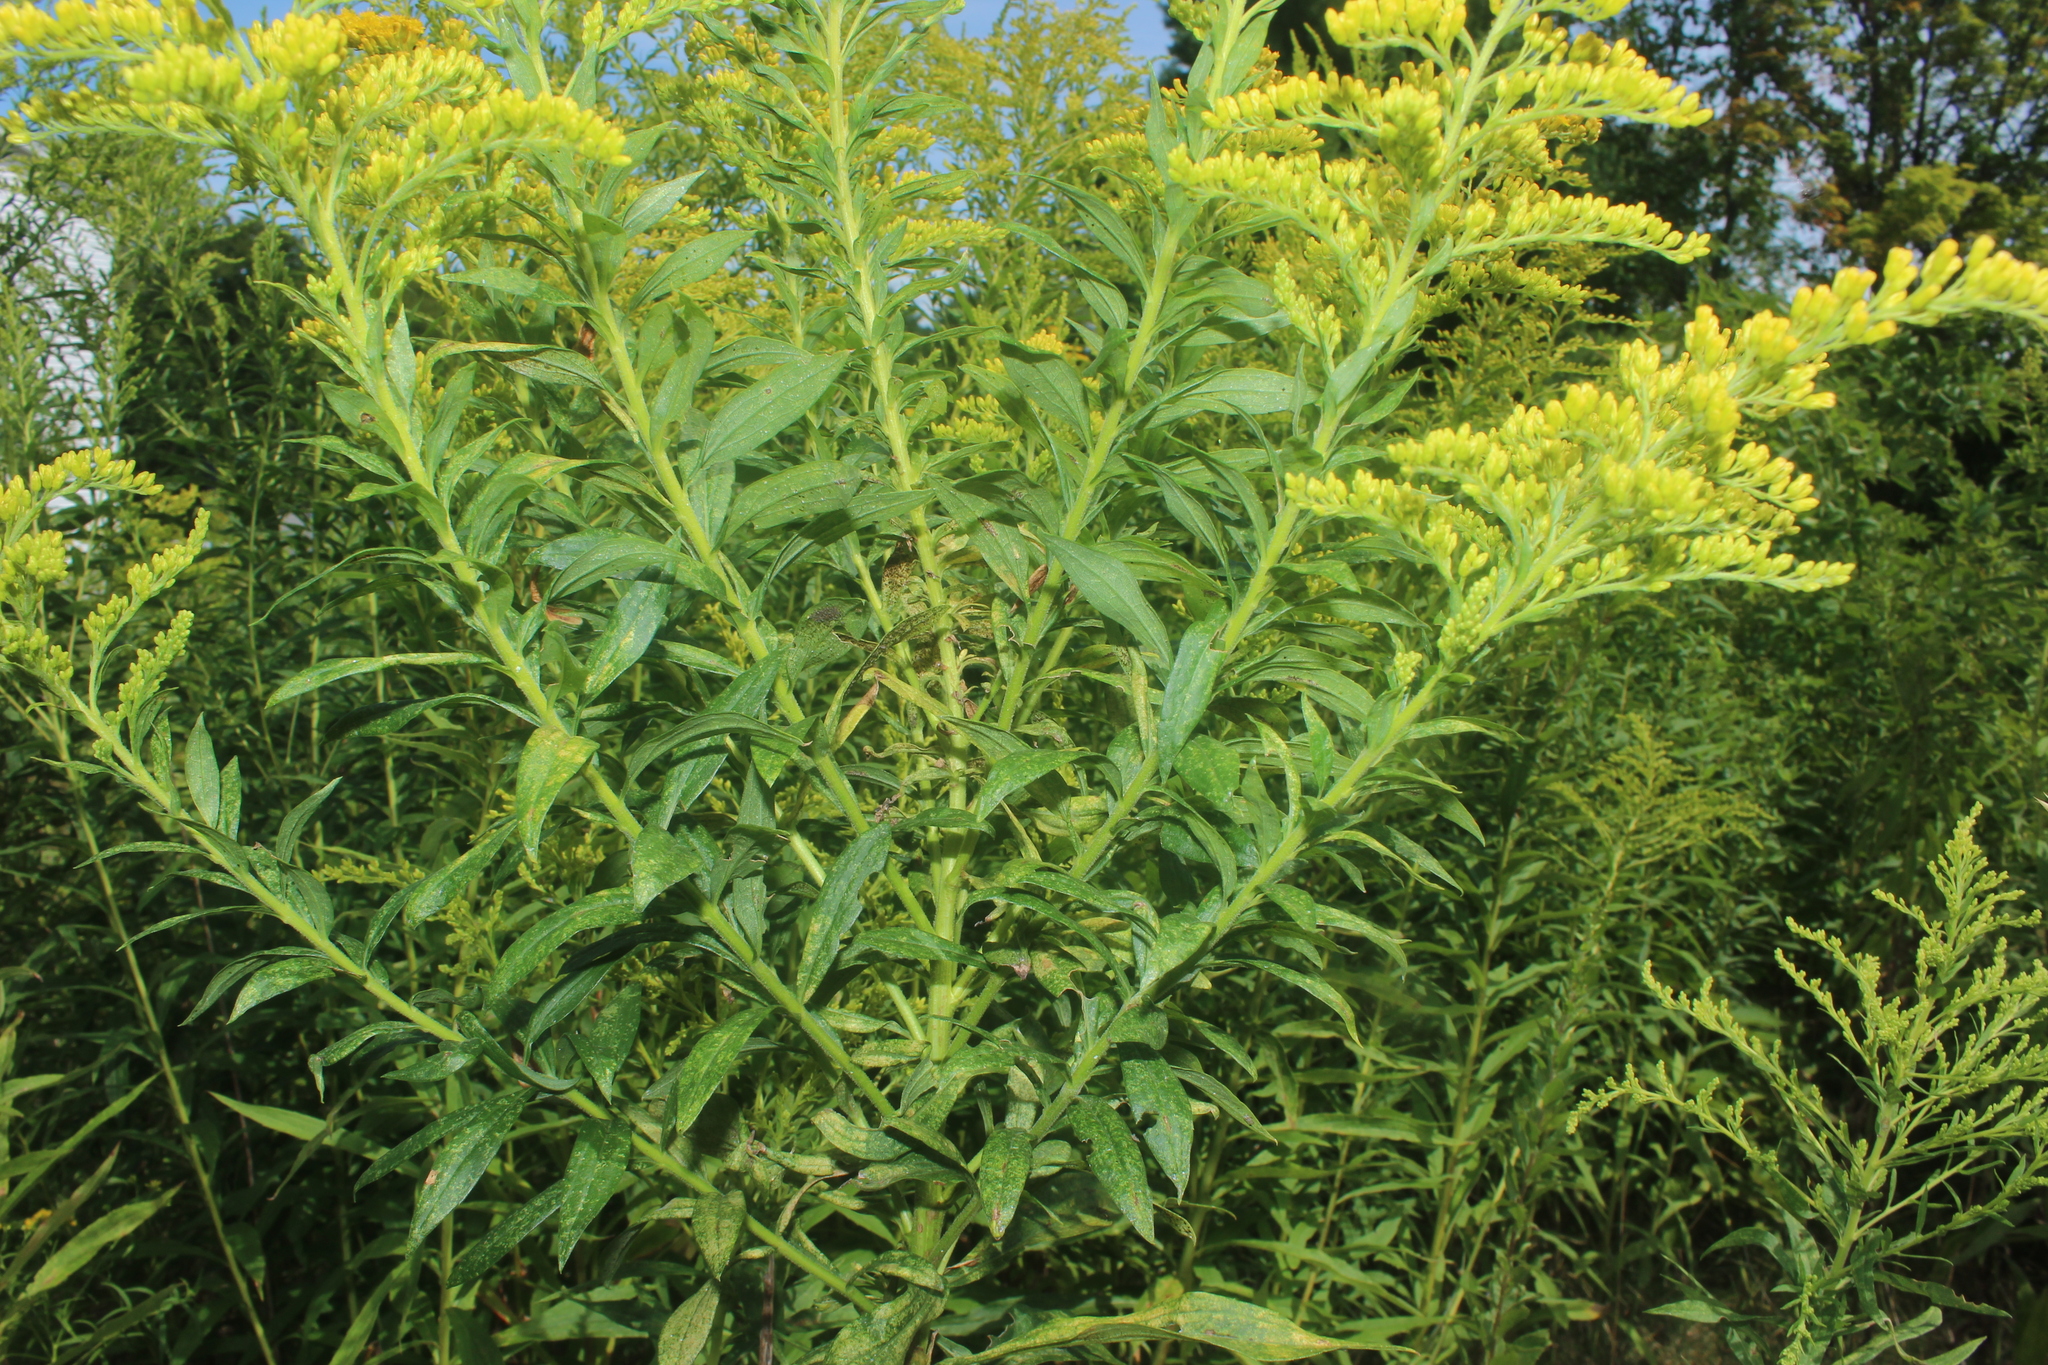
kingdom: Plantae
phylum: Tracheophyta
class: Magnoliopsida
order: Asterales
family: Asteraceae
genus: Solidago
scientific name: Solidago altissima
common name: Late goldenrod
